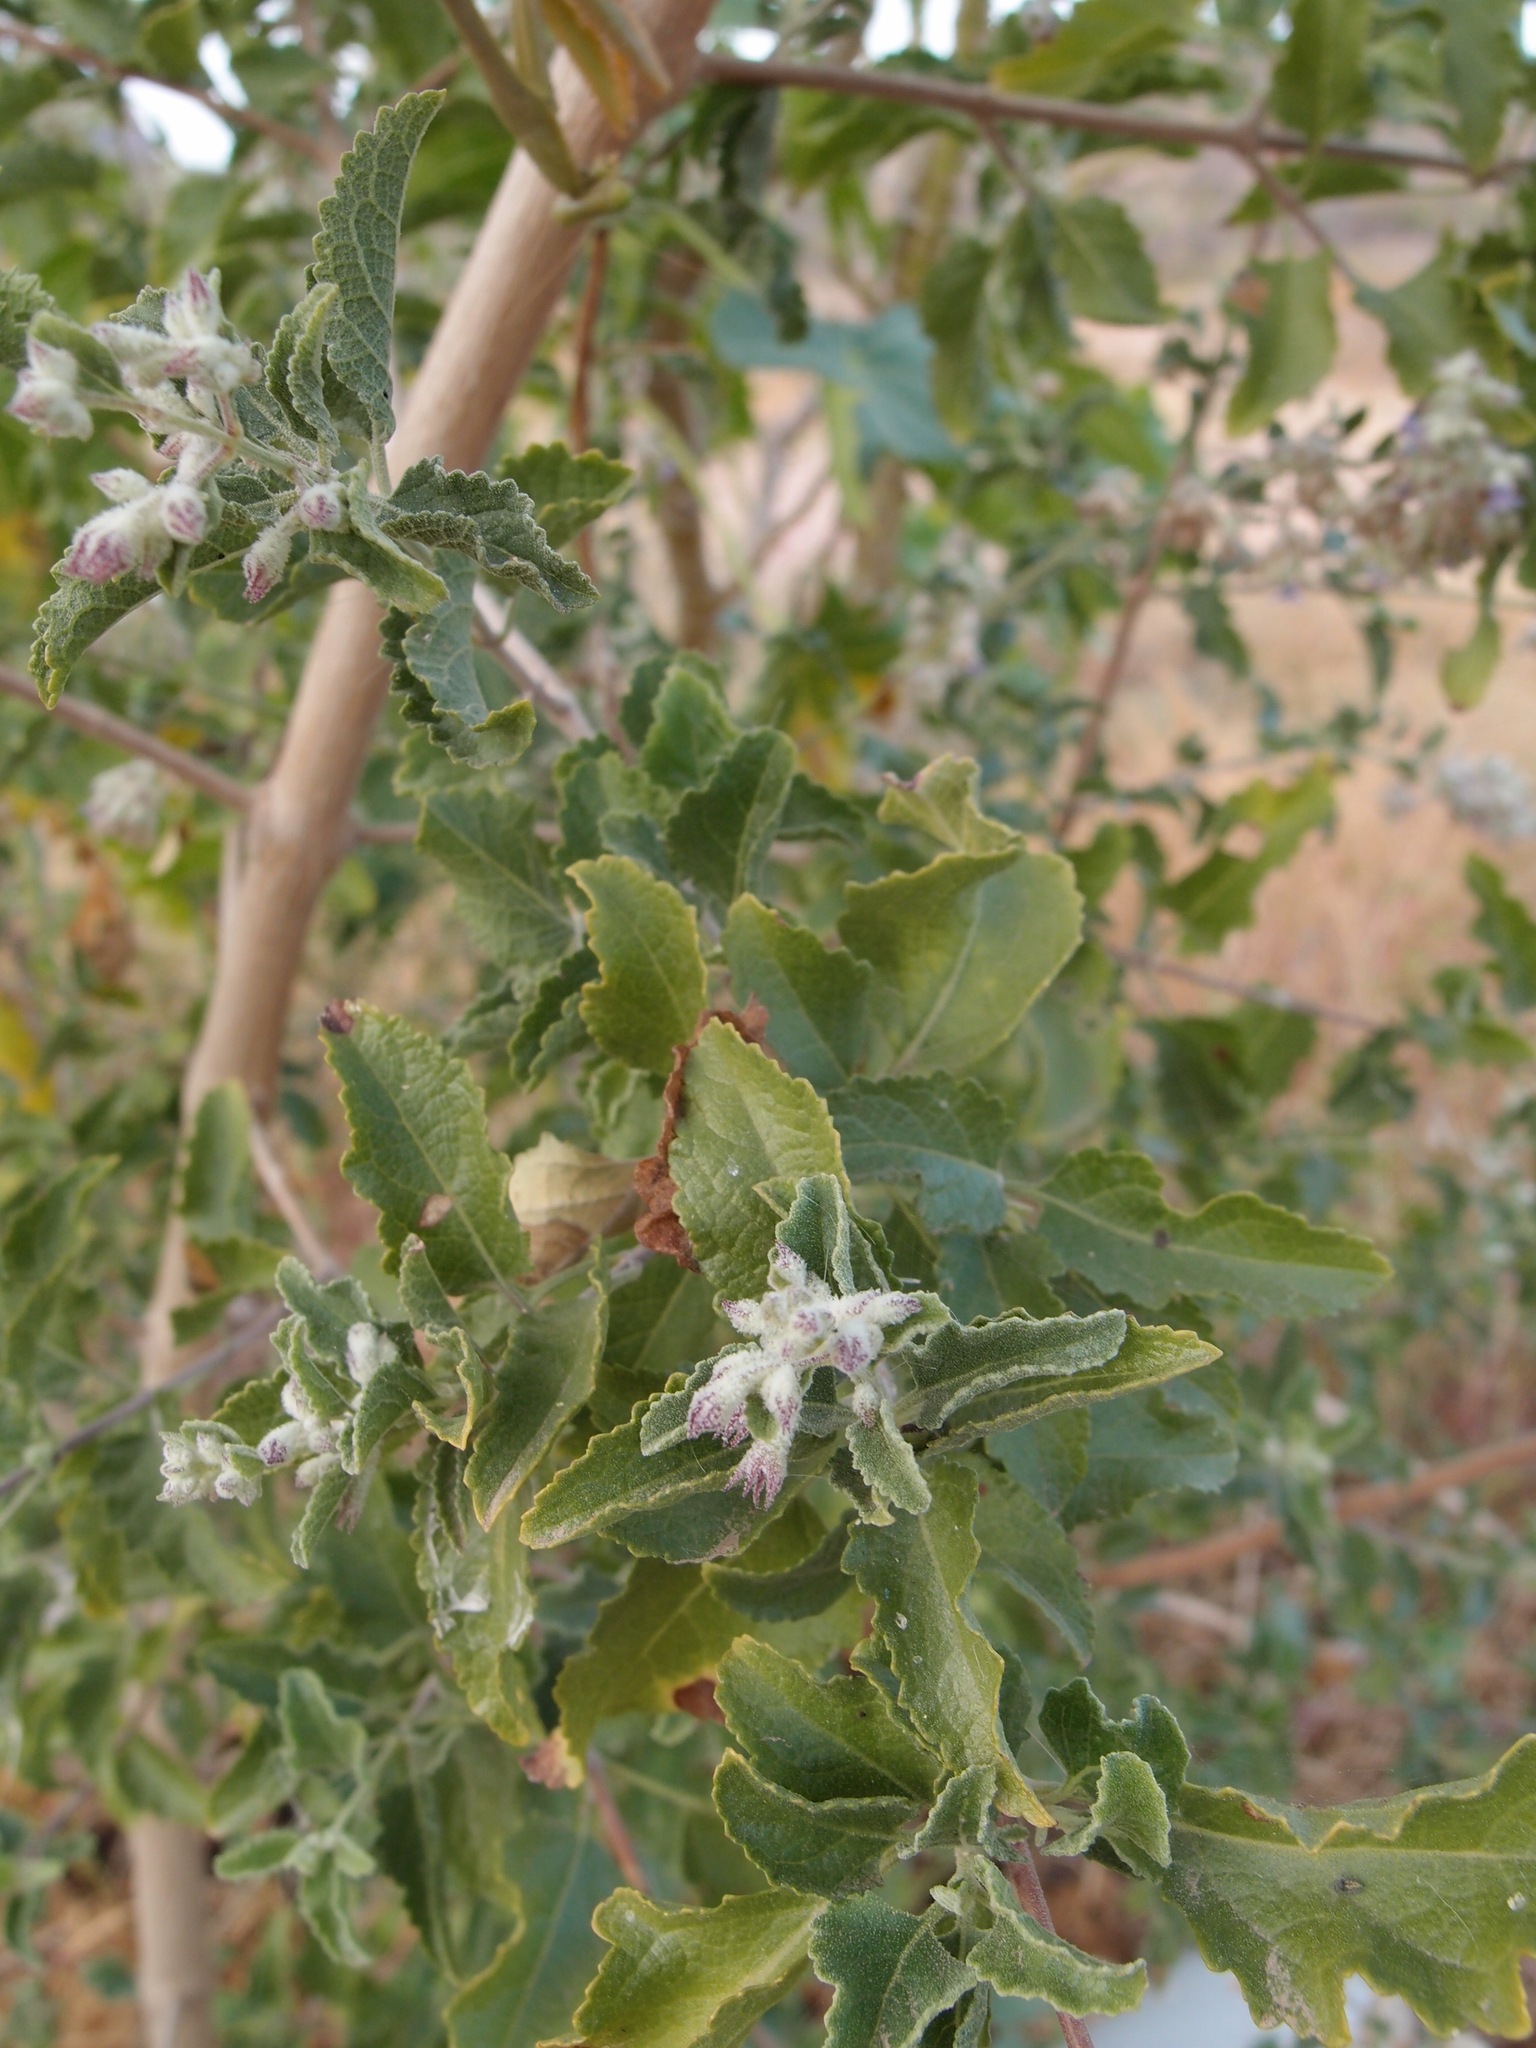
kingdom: Plantae
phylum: Tracheophyta
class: Magnoliopsida
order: Lamiales
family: Lamiaceae
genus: Condea
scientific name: Condea emoryi
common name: Chia
